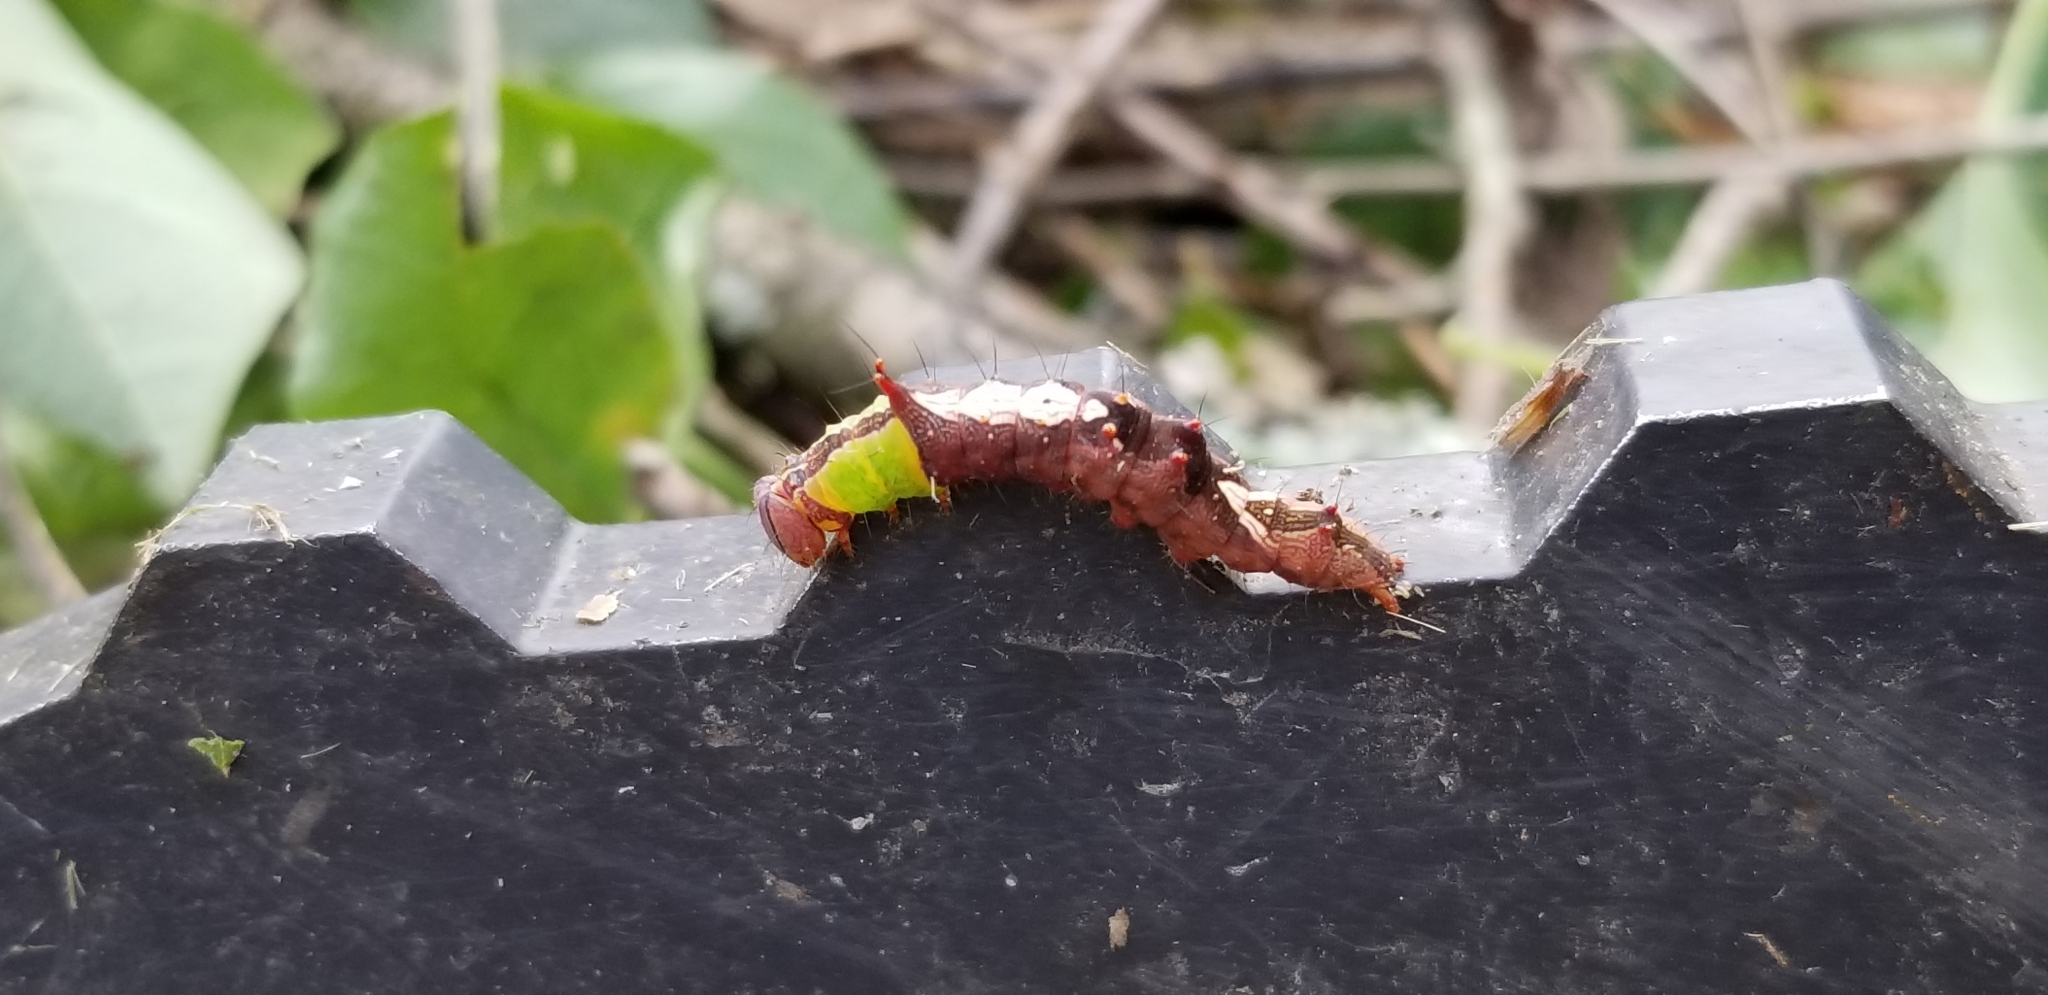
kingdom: Animalia
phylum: Arthropoda
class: Insecta
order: Lepidoptera
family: Notodontidae
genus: Schizura
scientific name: Schizura ipomaeae
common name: Morning-glory prominent
